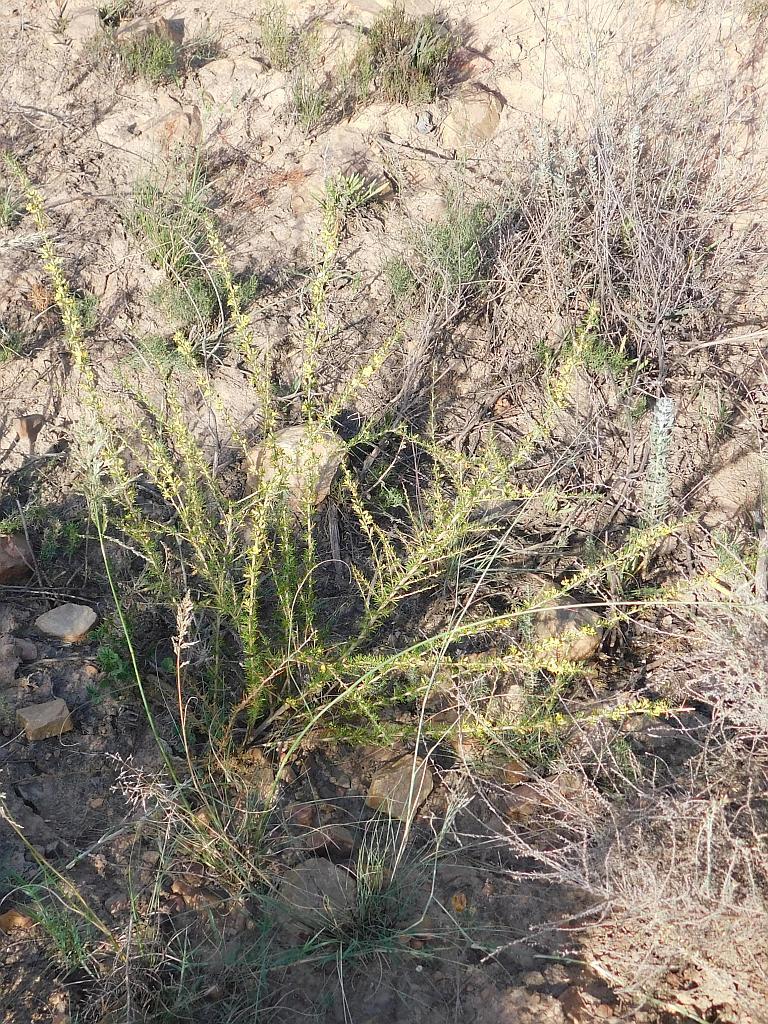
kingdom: Plantae
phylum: Tracheophyta
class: Magnoliopsida
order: Fabales
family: Fabaceae
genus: Aspalathus
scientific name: Aspalathus spinosa
